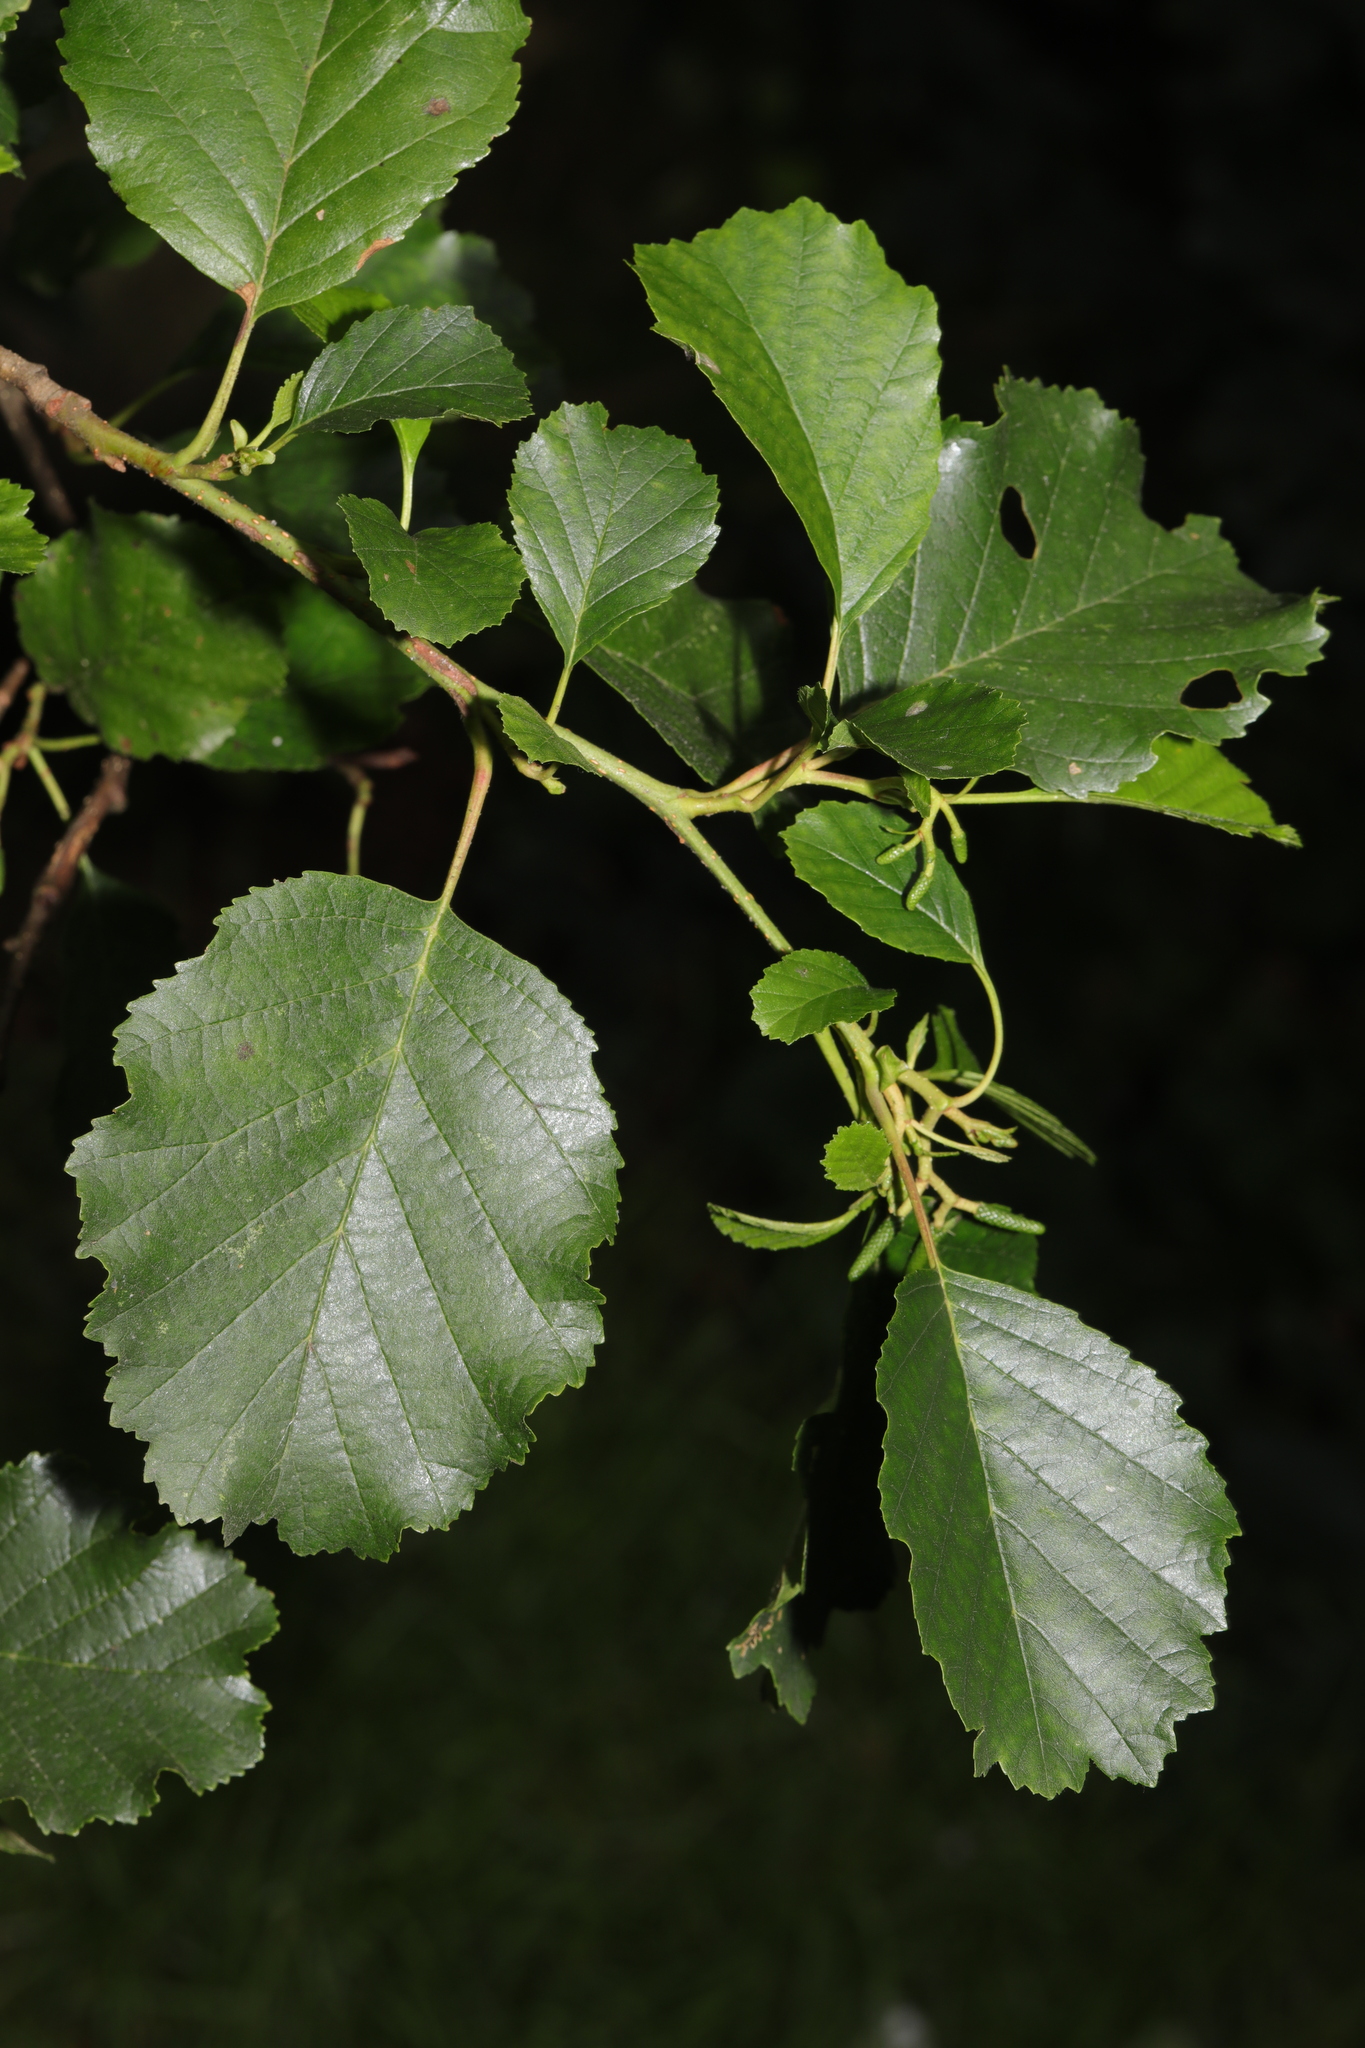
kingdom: Plantae
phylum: Tracheophyta
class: Magnoliopsida
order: Fagales
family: Betulaceae
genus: Alnus
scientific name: Alnus glutinosa
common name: Black alder
